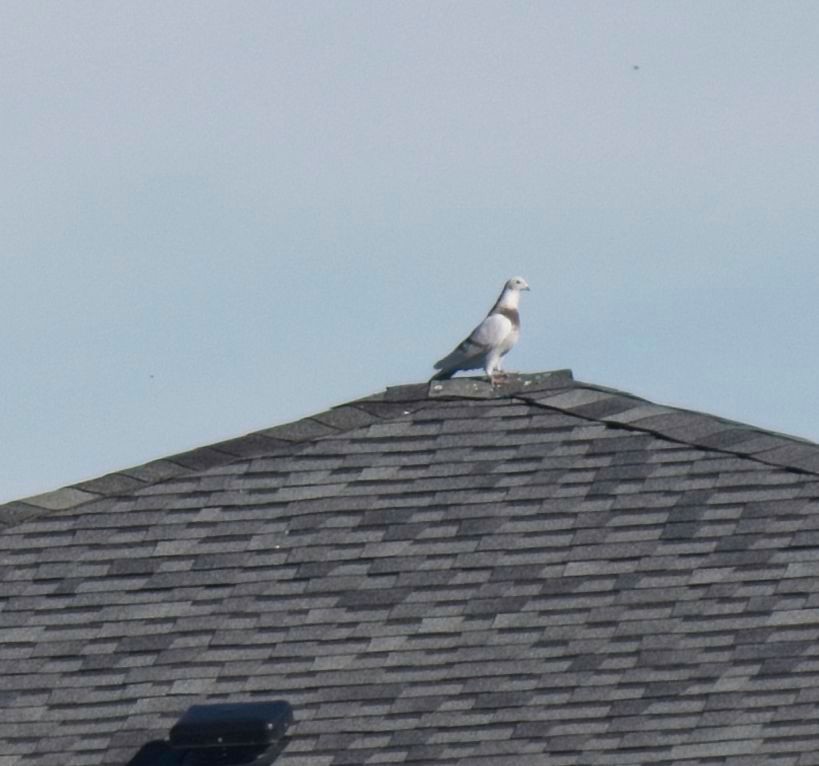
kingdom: Animalia
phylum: Chordata
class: Aves
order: Columbiformes
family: Columbidae
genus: Columba
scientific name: Columba livia
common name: Rock pigeon
